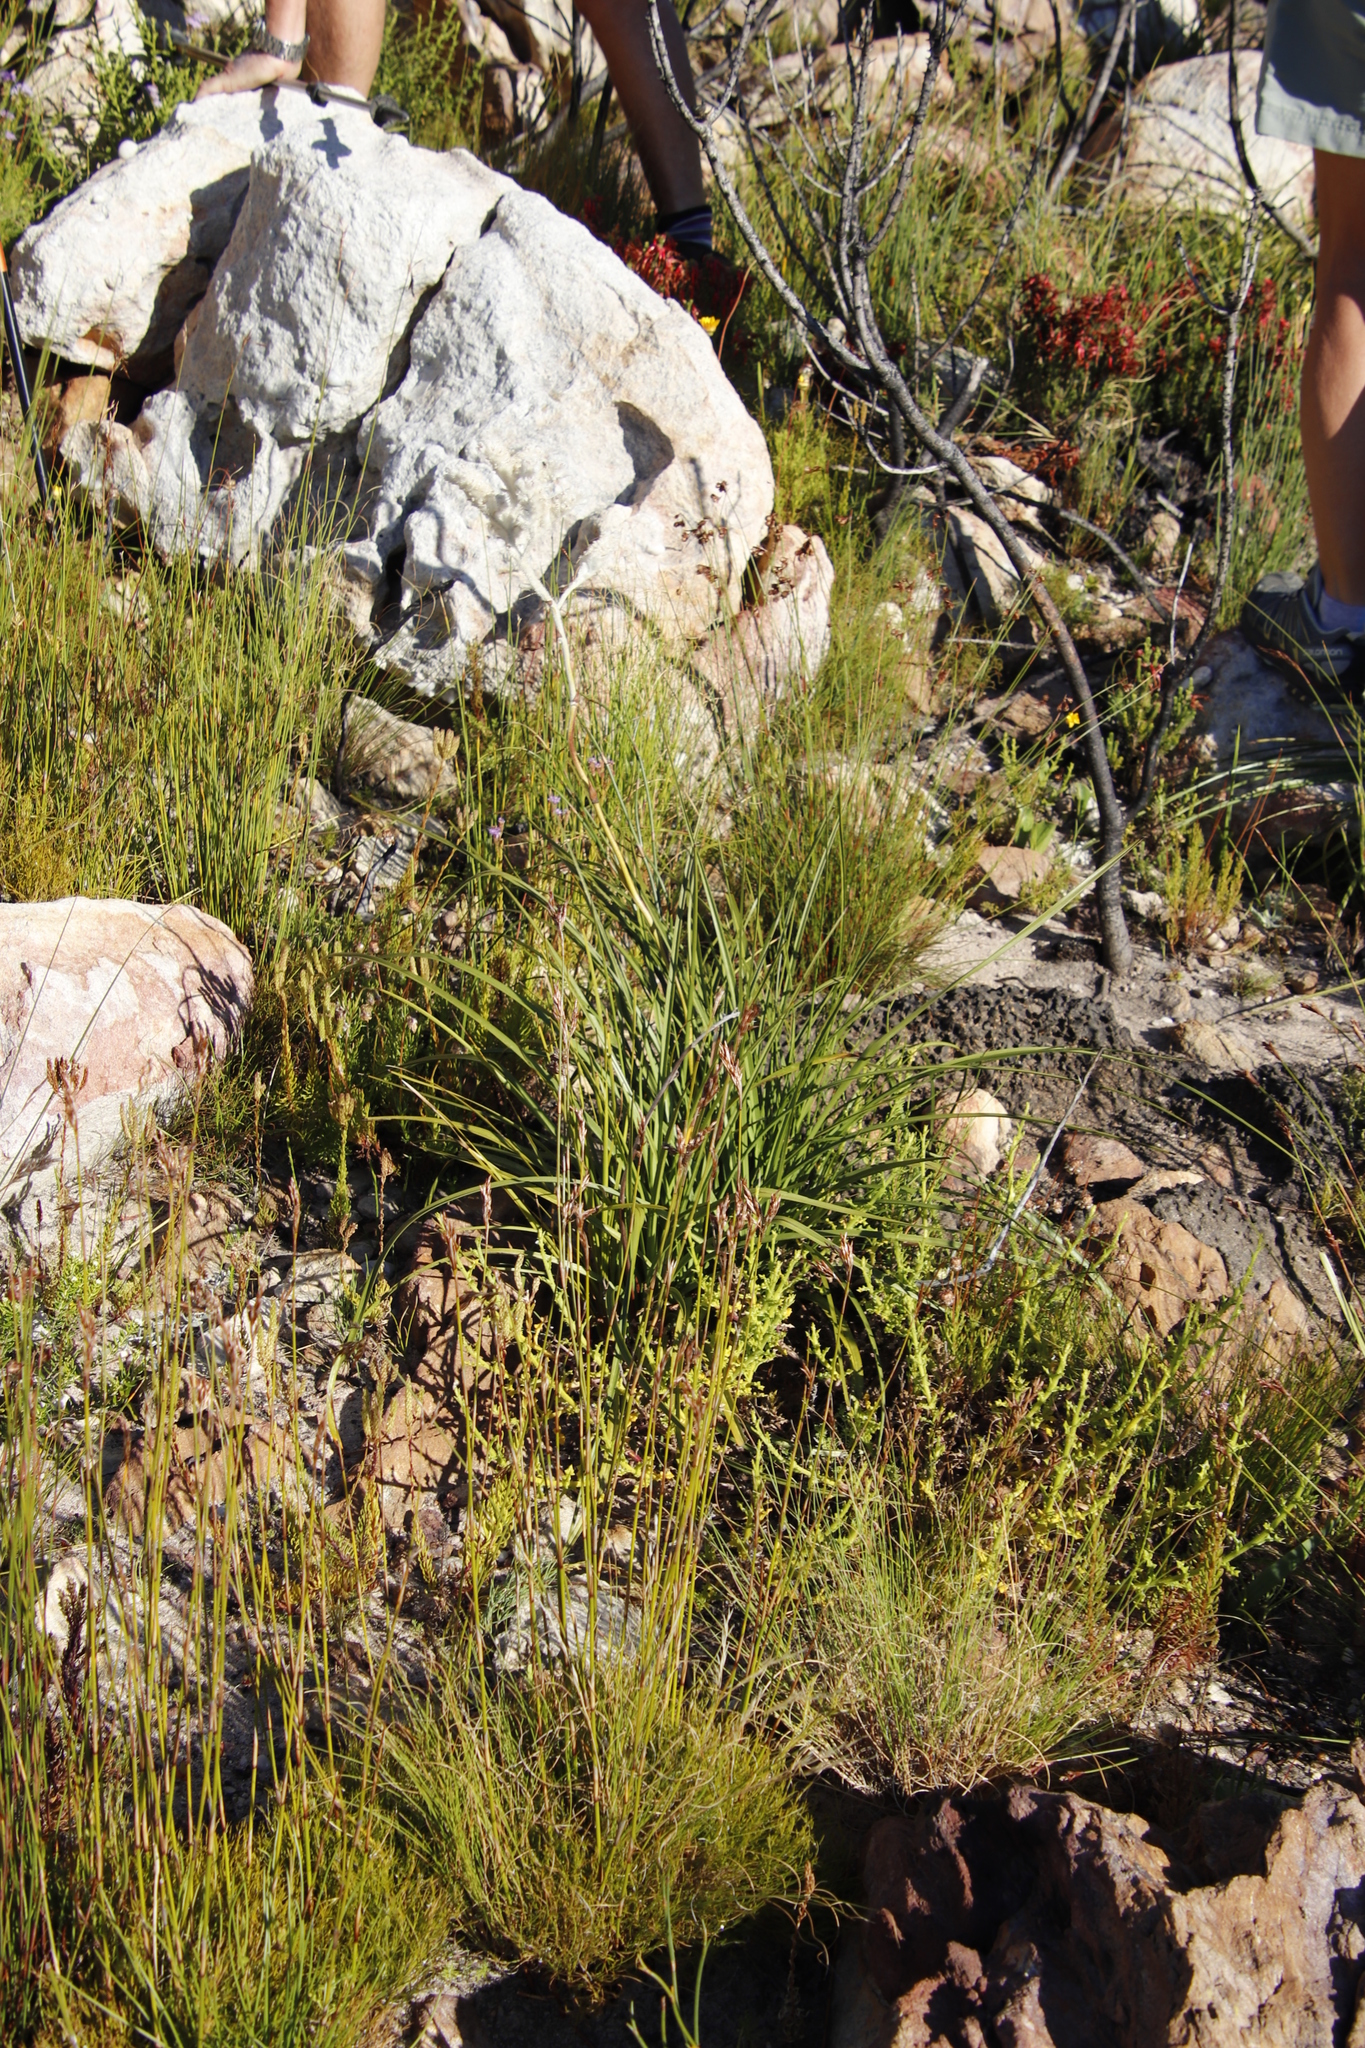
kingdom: Plantae
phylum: Tracheophyta
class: Liliopsida
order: Asparagales
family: Lanariaceae
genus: Lanaria
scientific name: Lanaria lanata
